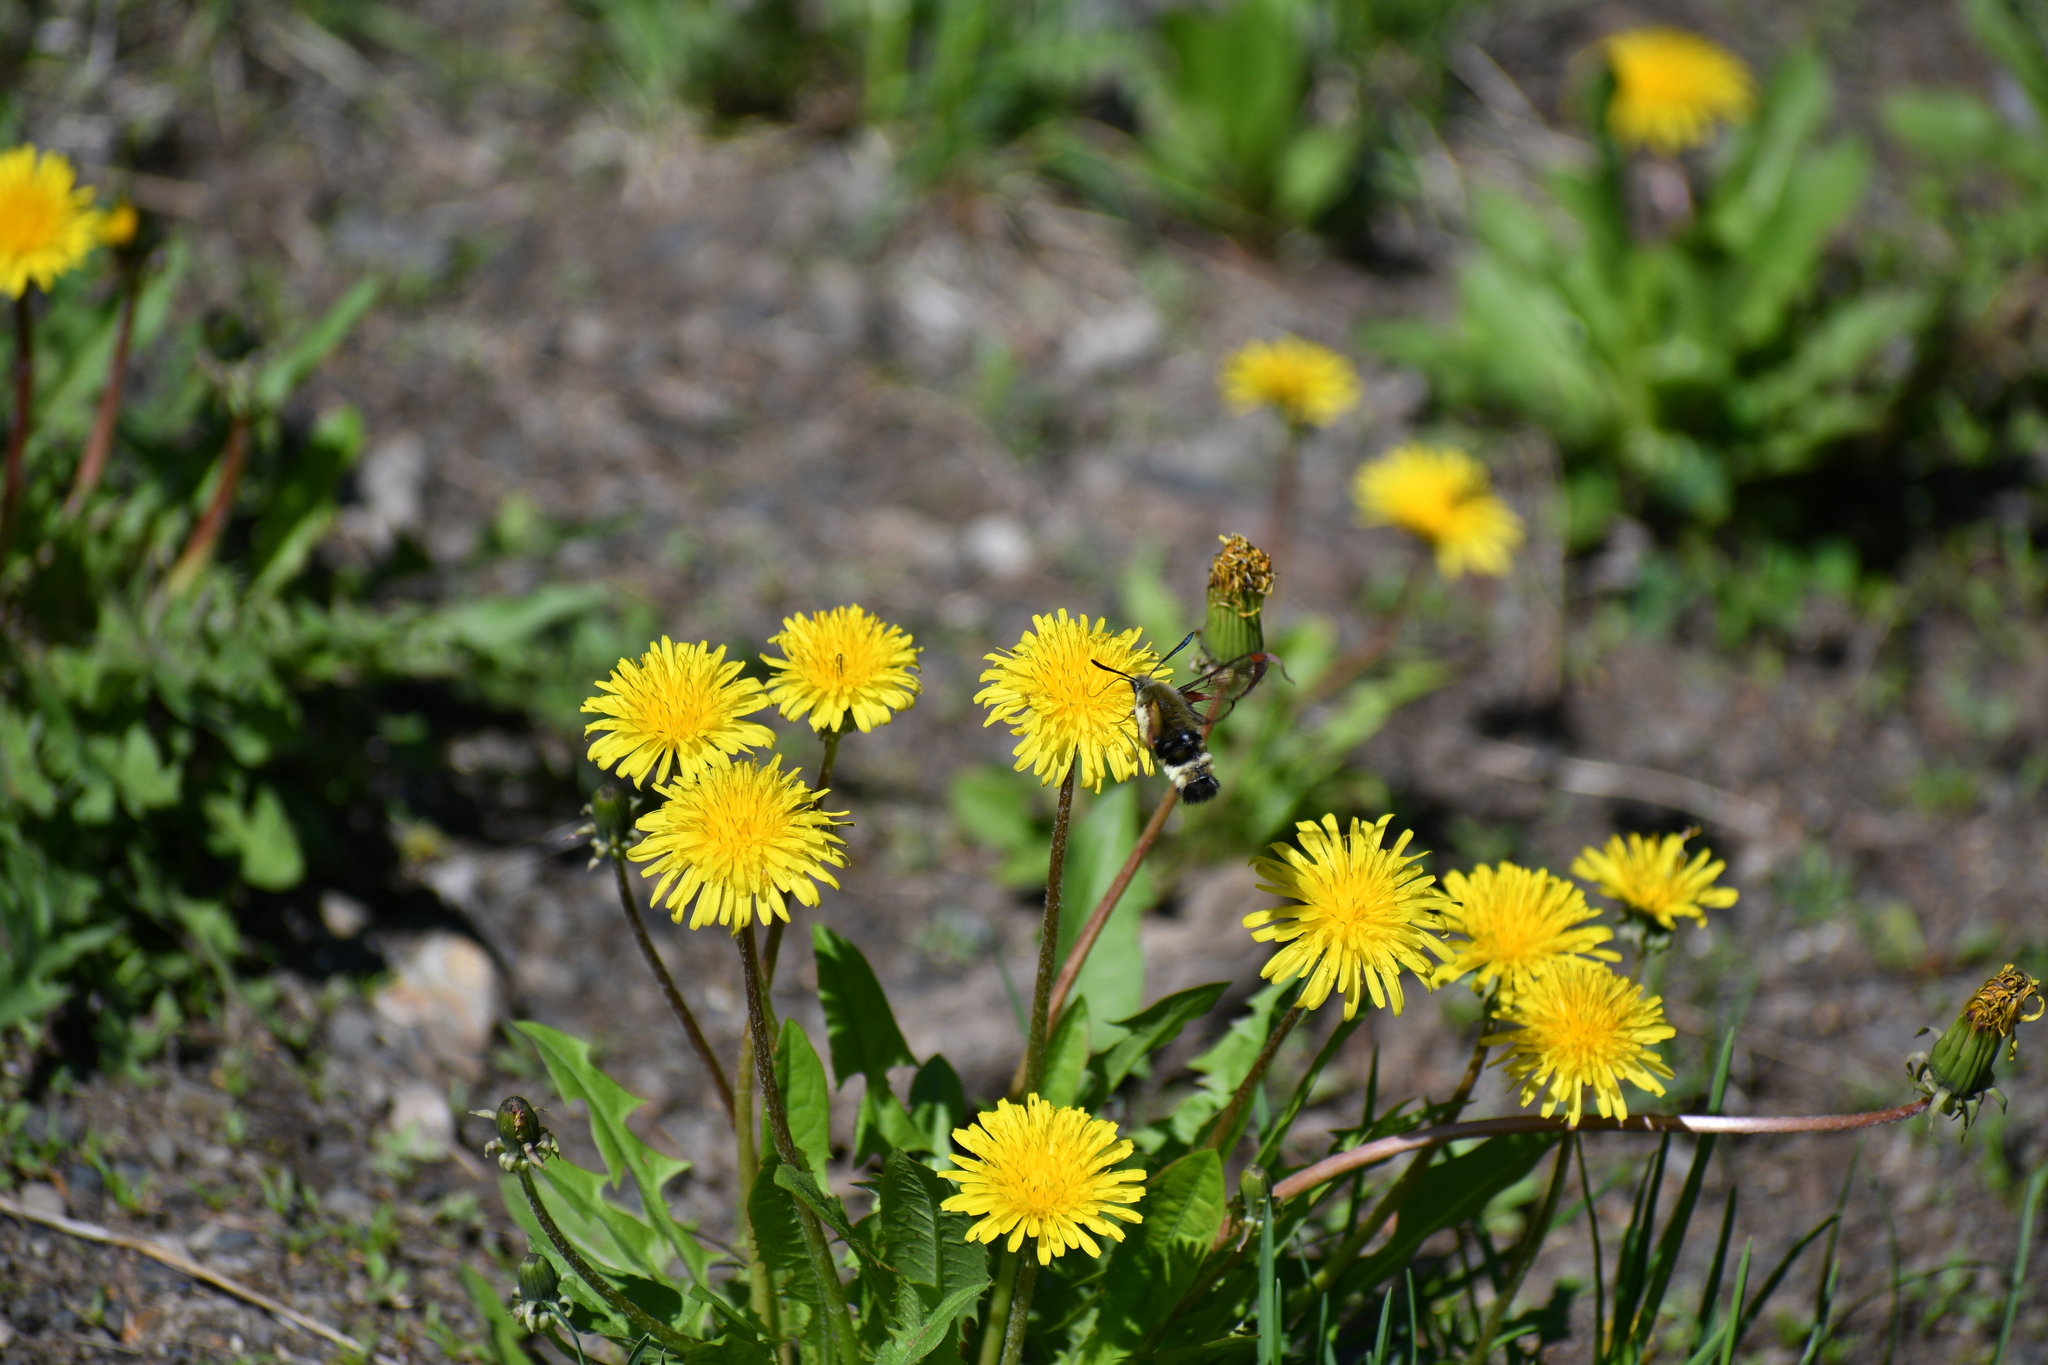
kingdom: Animalia
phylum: Arthropoda
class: Insecta
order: Lepidoptera
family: Sphingidae
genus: Hemaris
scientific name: Hemaris thetis
